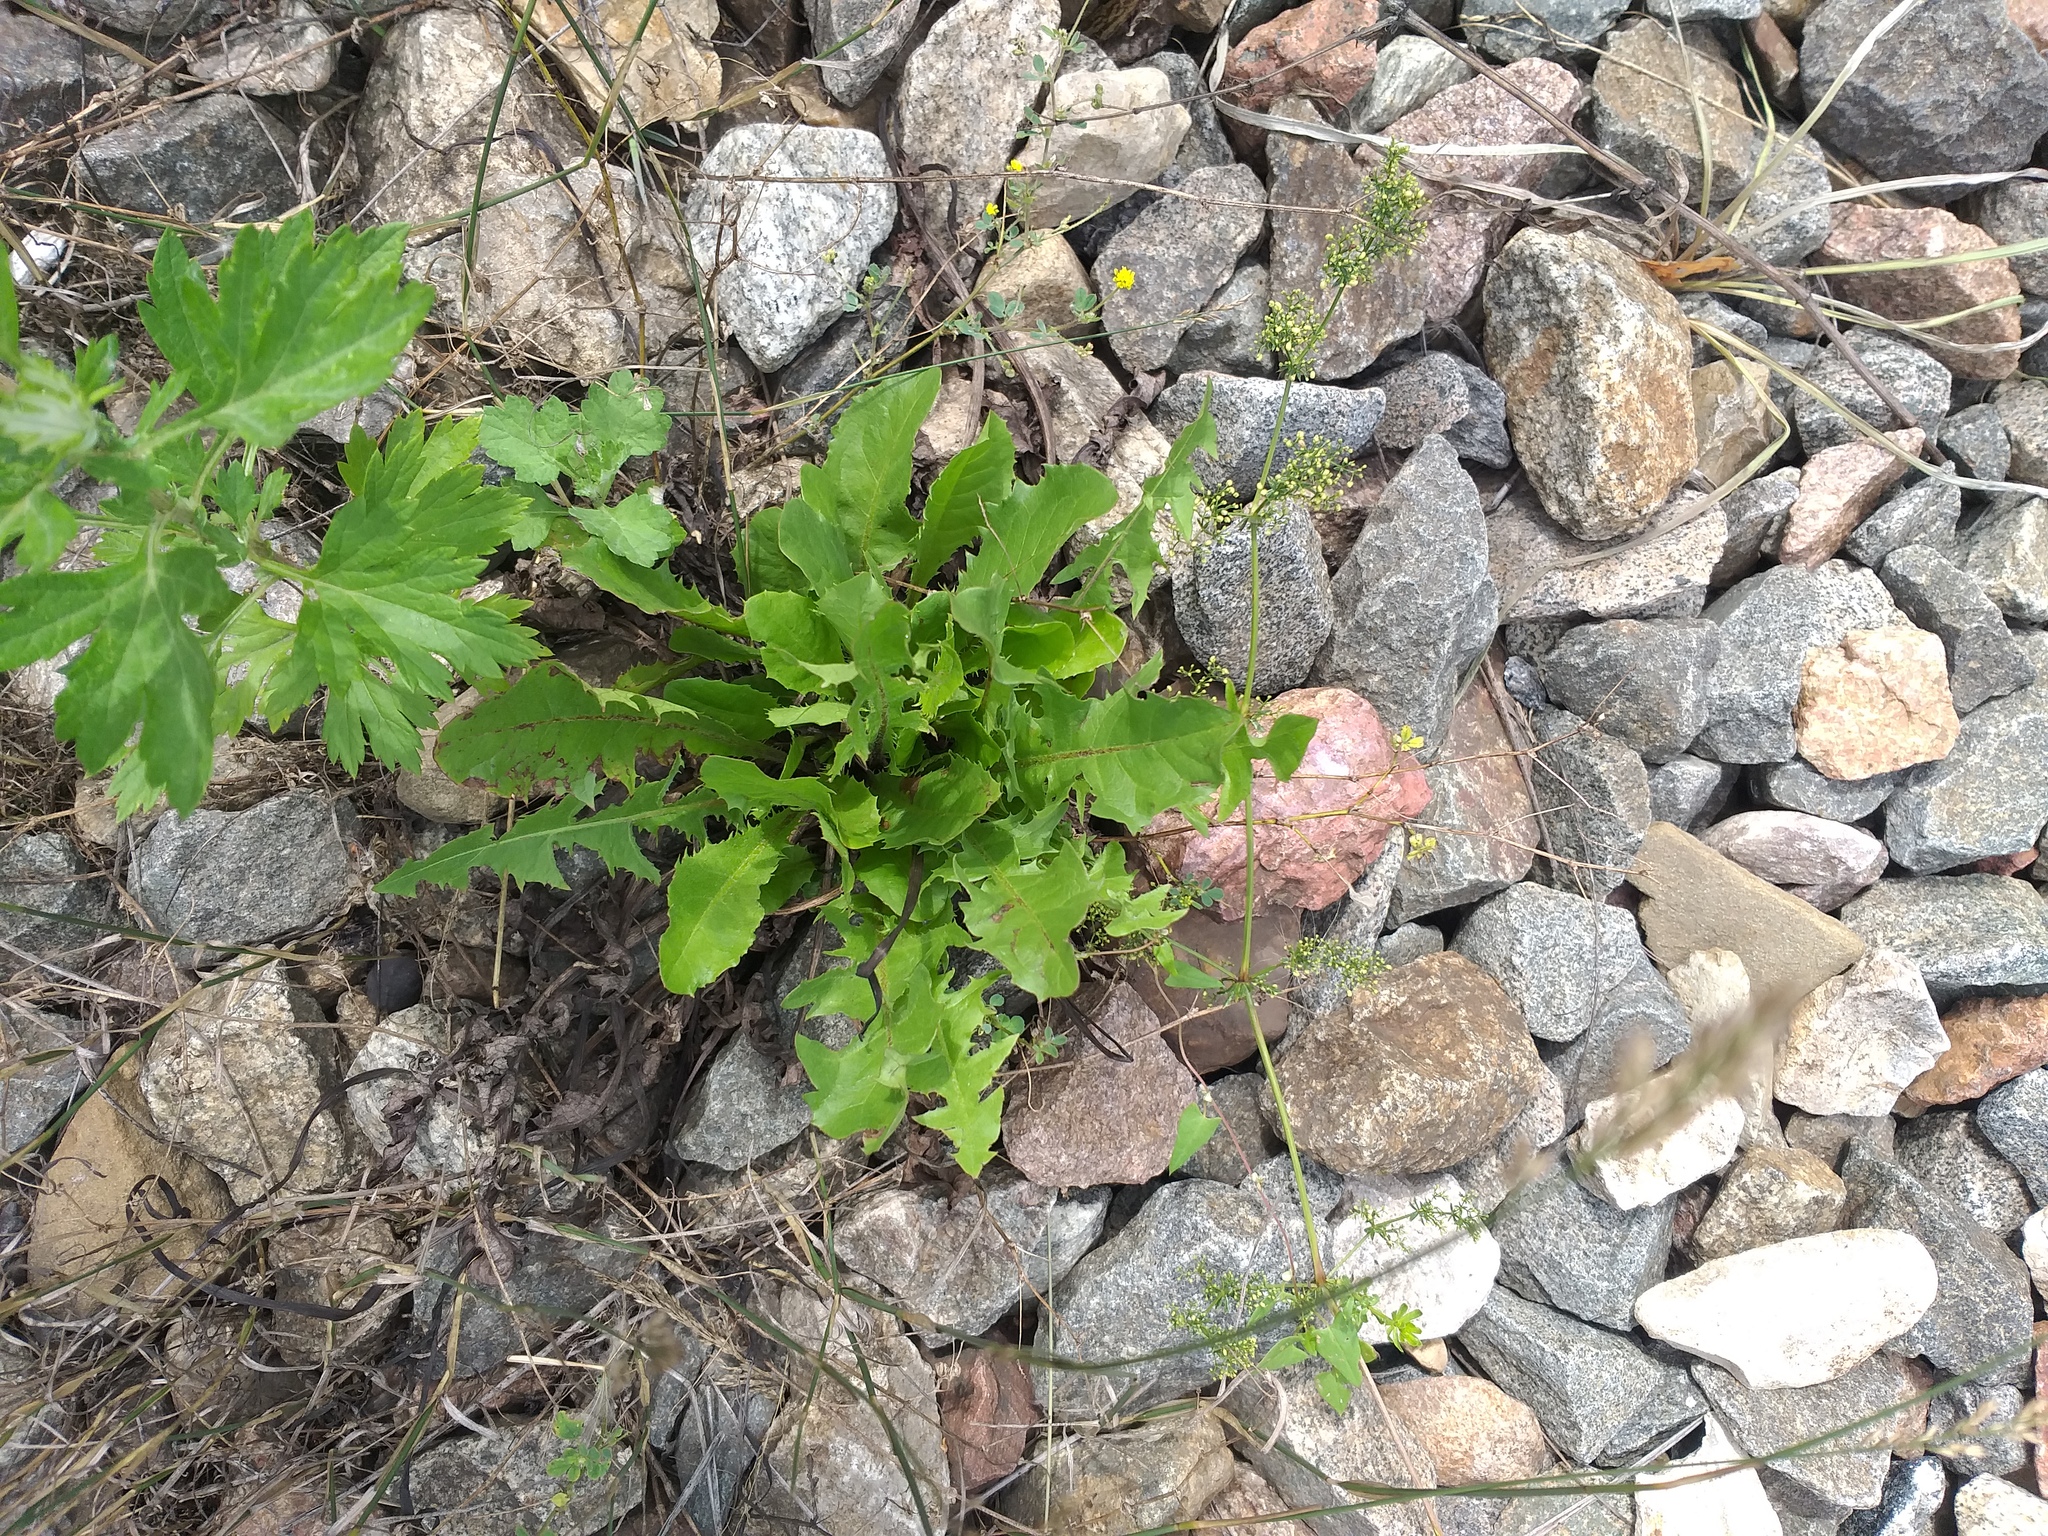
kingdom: Plantae
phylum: Tracheophyta
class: Magnoliopsida
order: Asterales
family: Asteraceae
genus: Taraxacum
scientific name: Taraxacum officinale
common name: Common dandelion
